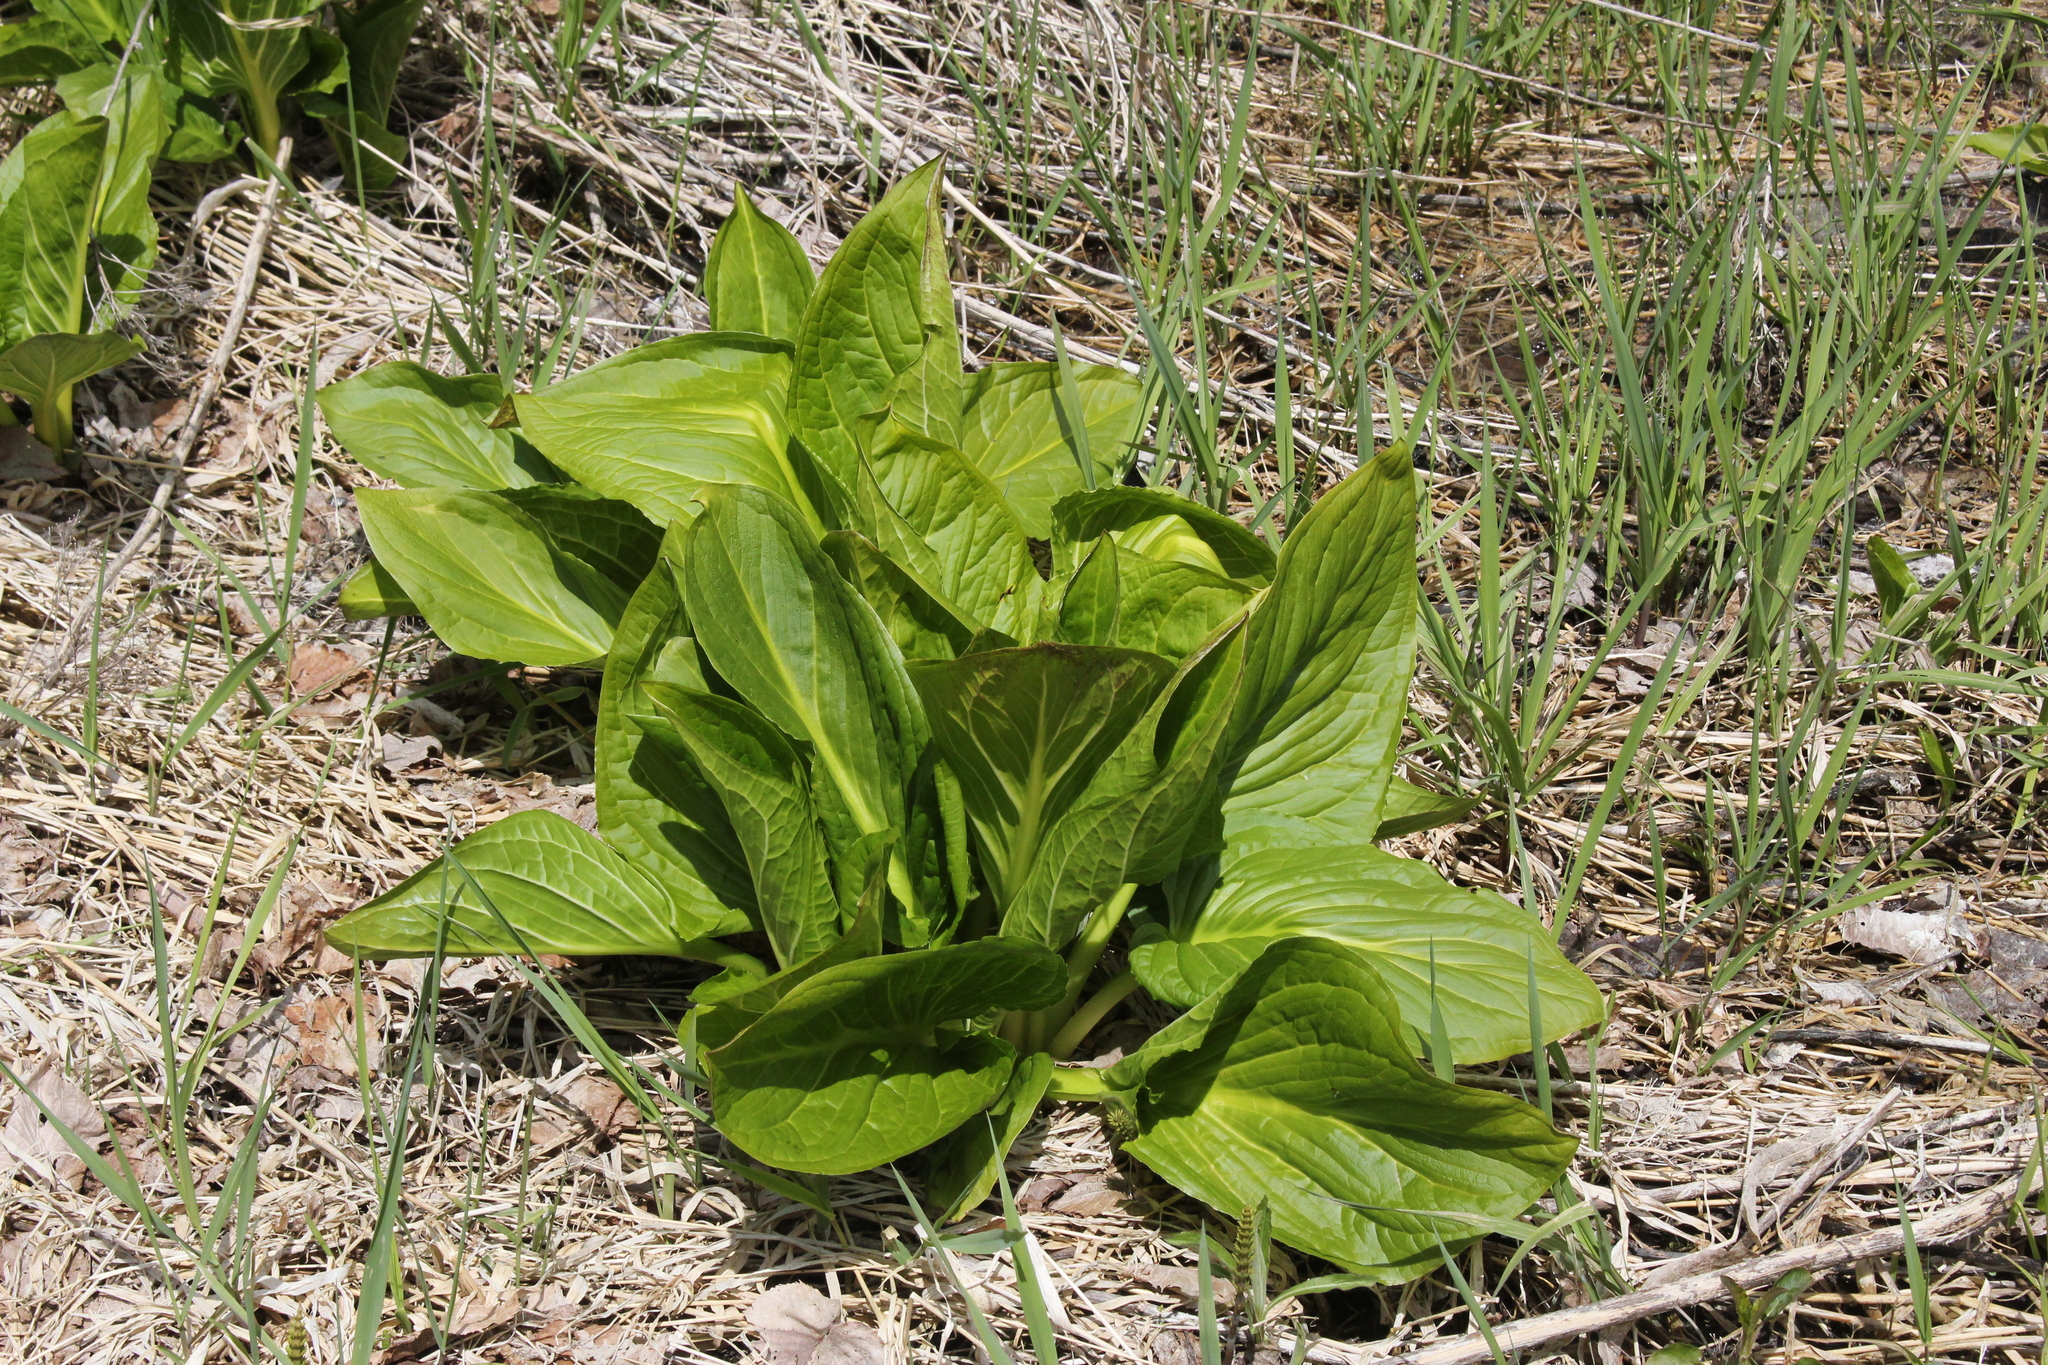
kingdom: Plantae
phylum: Tracheophyta
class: Liliopsida
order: Alismatales
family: Araceae
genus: Symplocarpus
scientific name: Symplocarpus foetidus
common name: Eastern skunk cabbage
